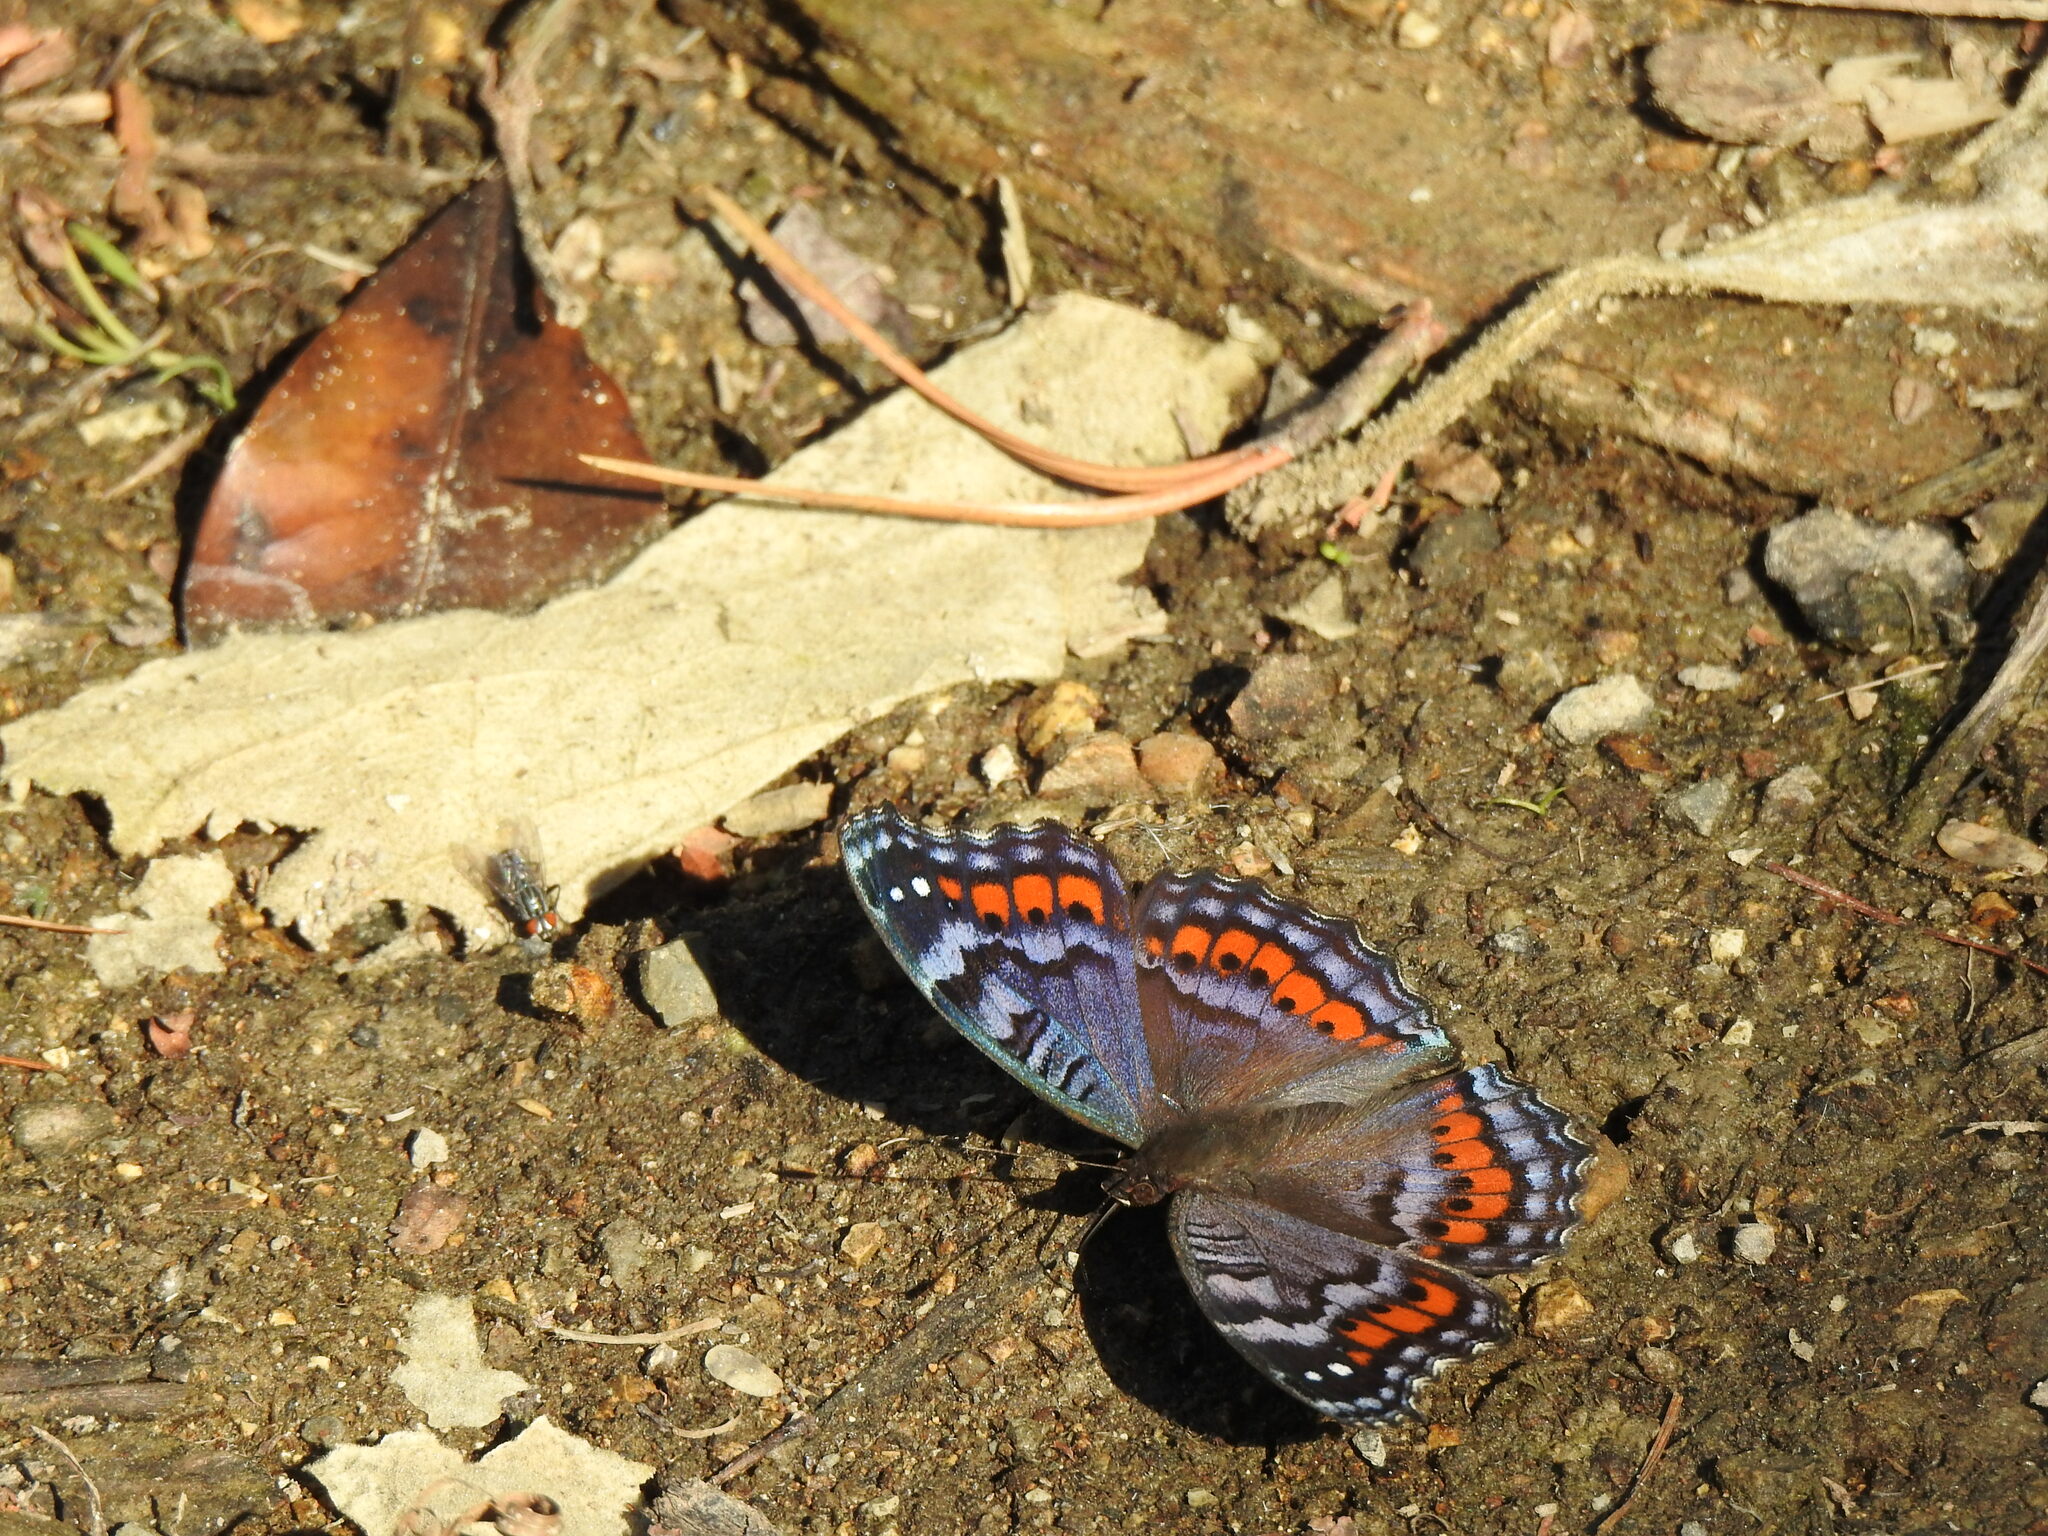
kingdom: Animalia
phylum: Arthropoda
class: Insecta
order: Lepidoptera
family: Nymphalidae
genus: Precis
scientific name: Precis octavia
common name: Gaudy commodore
